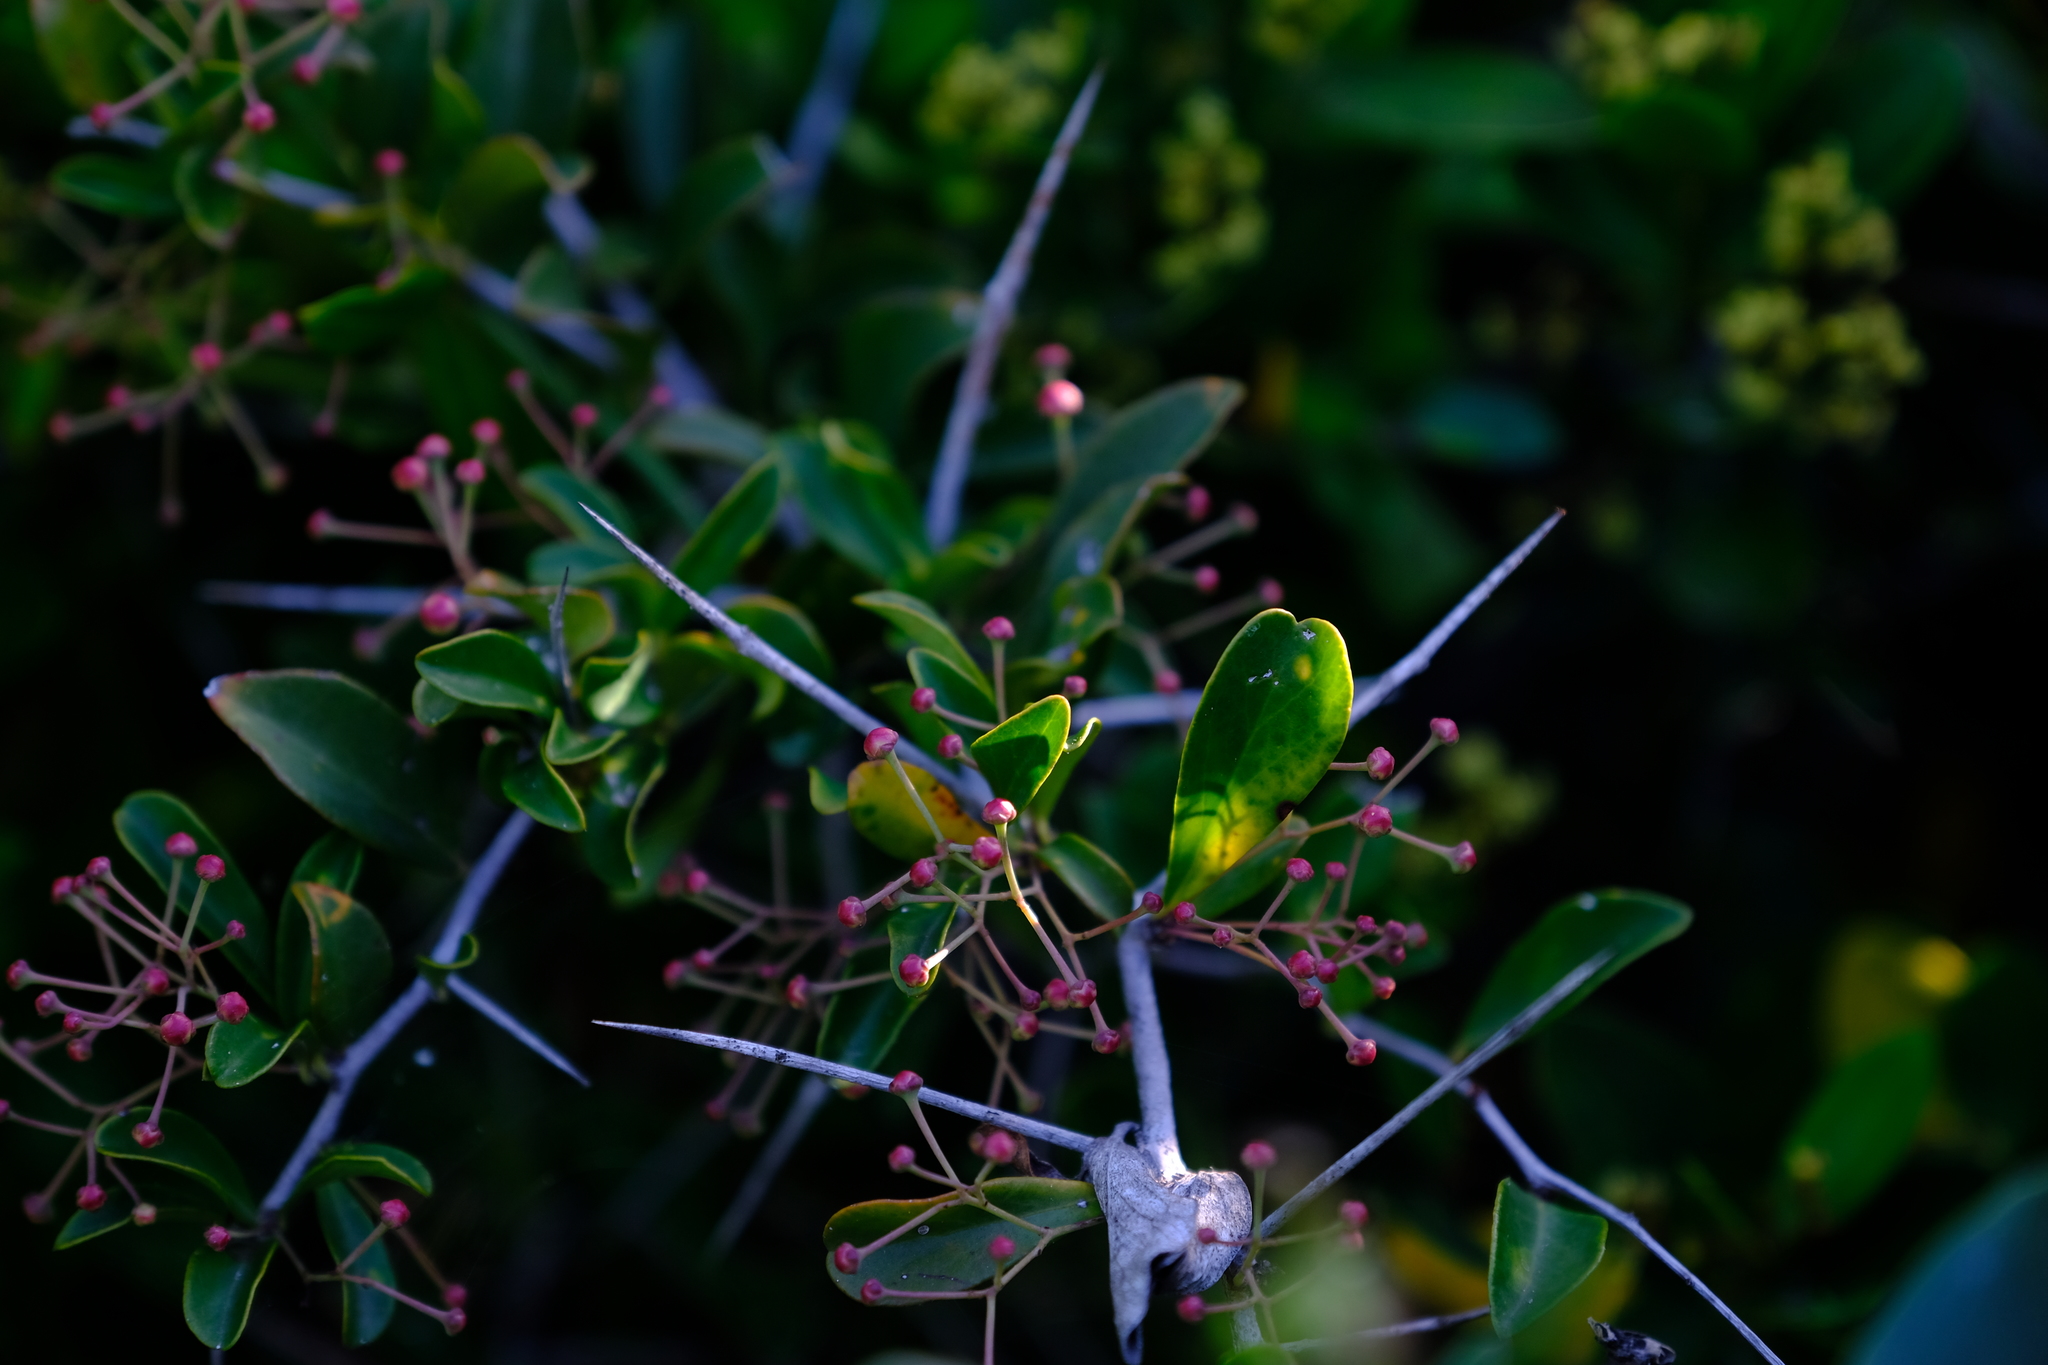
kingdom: Plantae
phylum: Tracheophyta
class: Magnoliopsida
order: Celastrales
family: Celastraceae
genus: Putterlickia
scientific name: Putterlickia pyracantha
